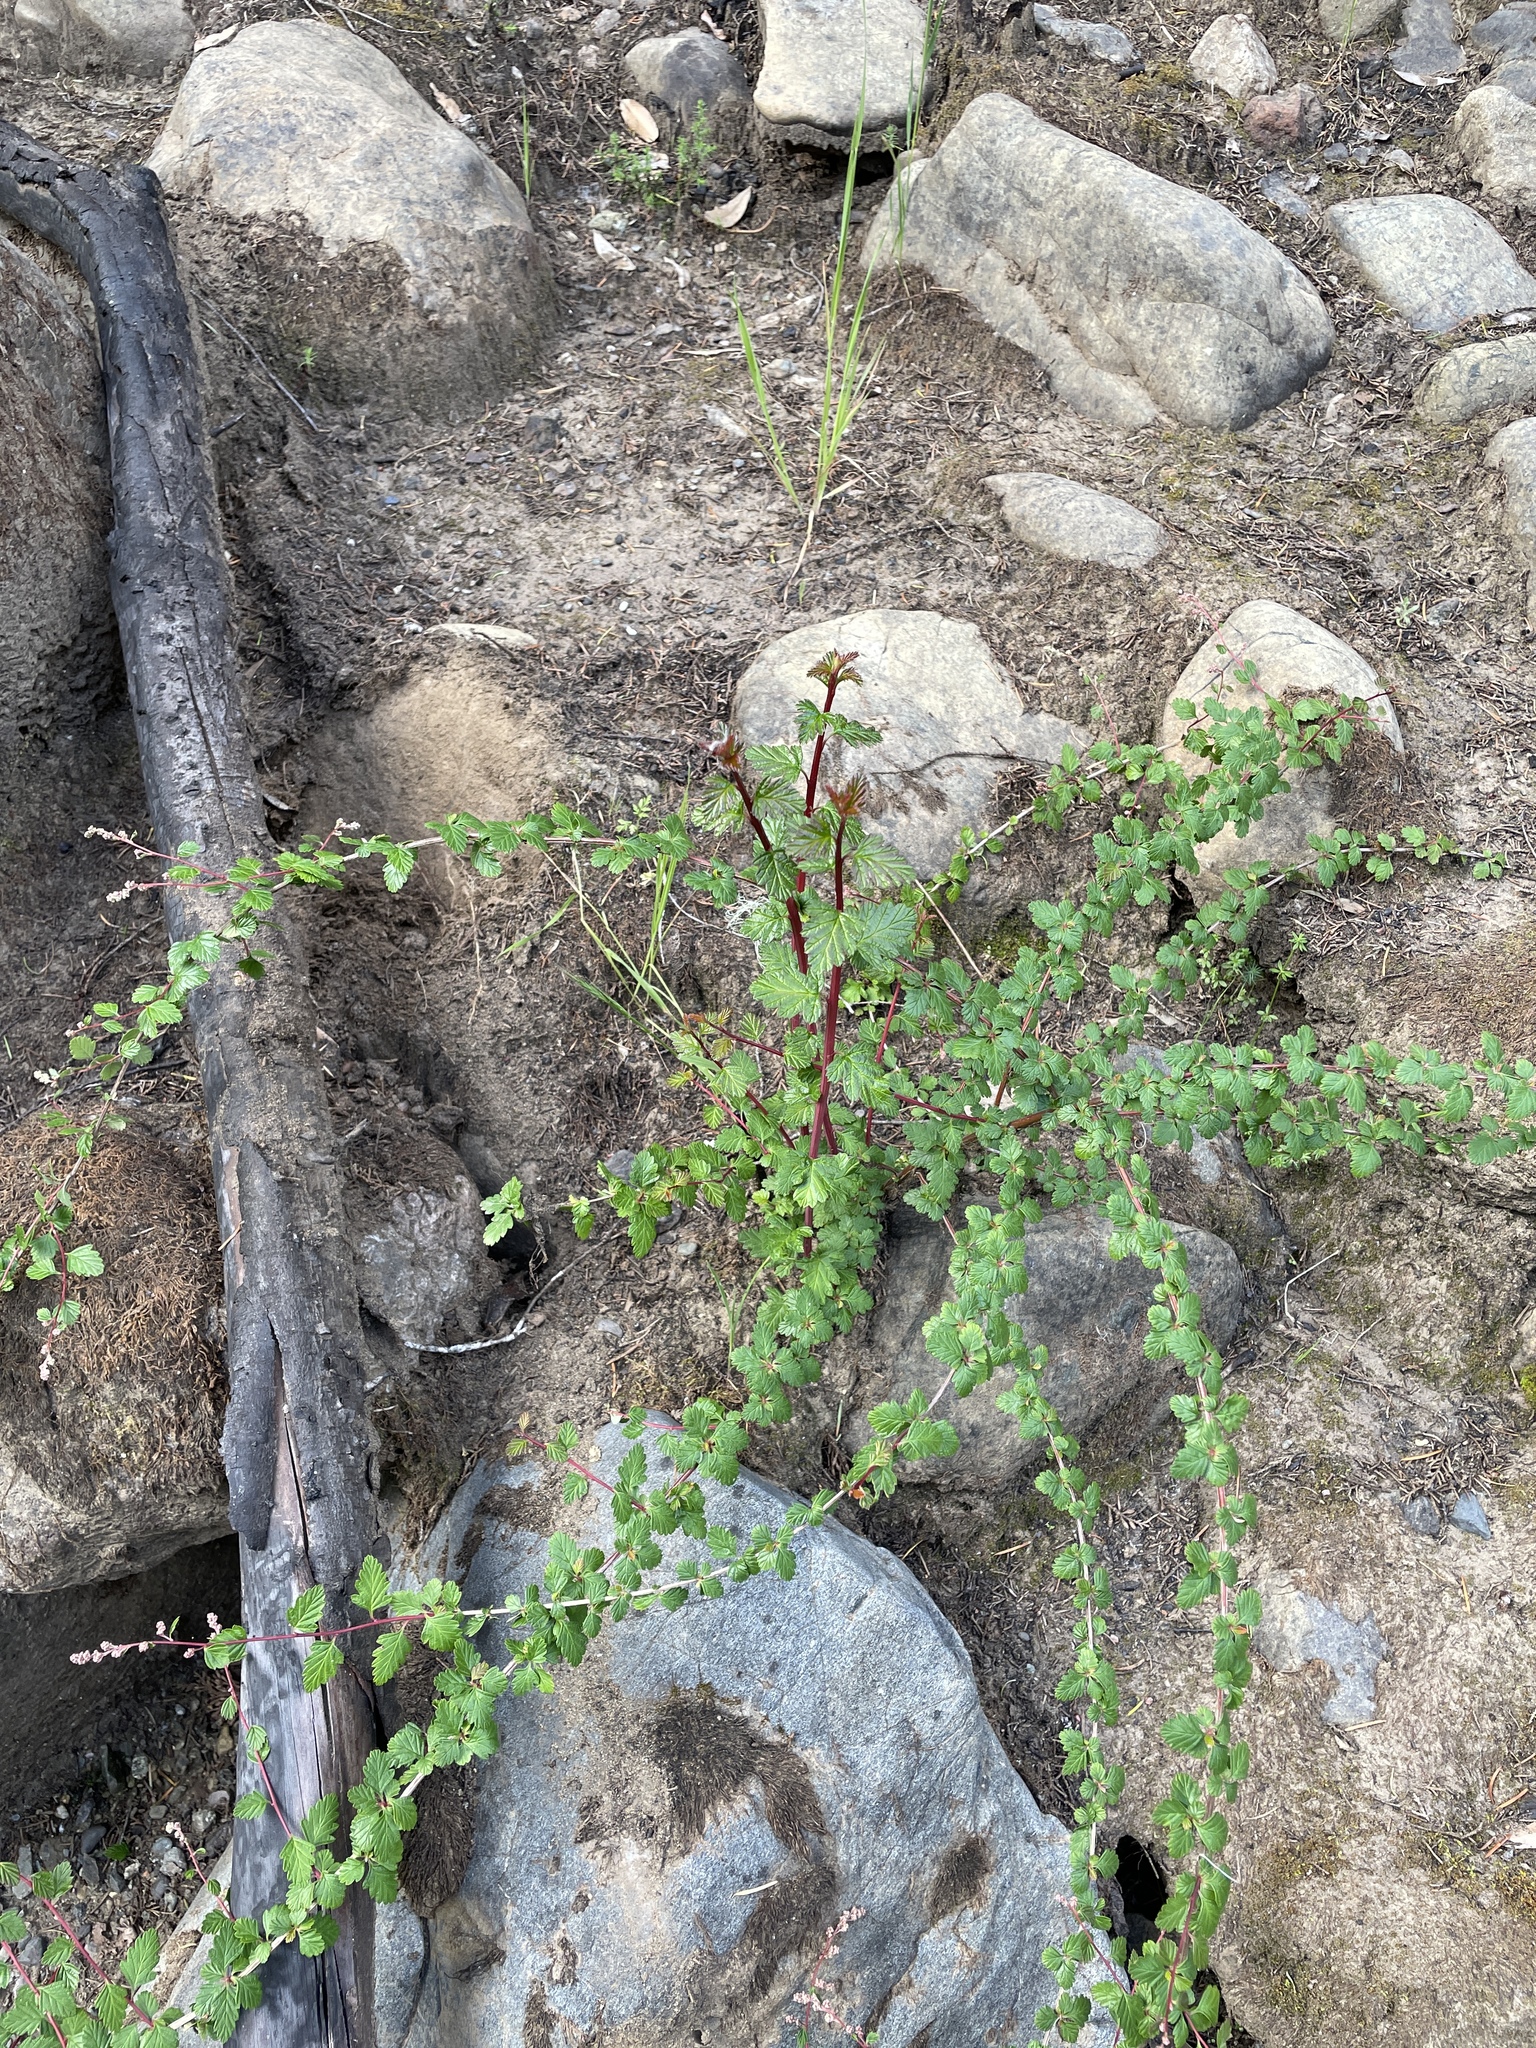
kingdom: Plantae
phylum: Tracheophyta
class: Magnoliopsida
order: Rosales
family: Rosaceae
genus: Holodiscus
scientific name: Holodiscus discolor
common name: Oceanspray
